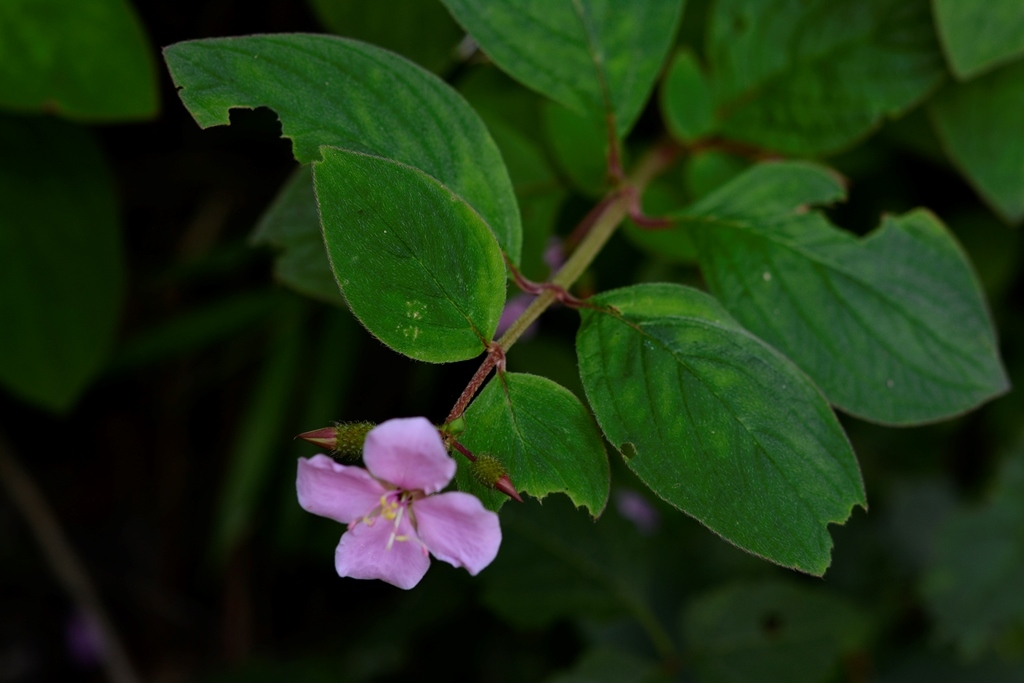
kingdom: Plantae
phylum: Tracheophyta
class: Magnoliopsida
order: Myrtales
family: Melastomataceae
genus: Heterocentron
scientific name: Heterocentron muricatum
